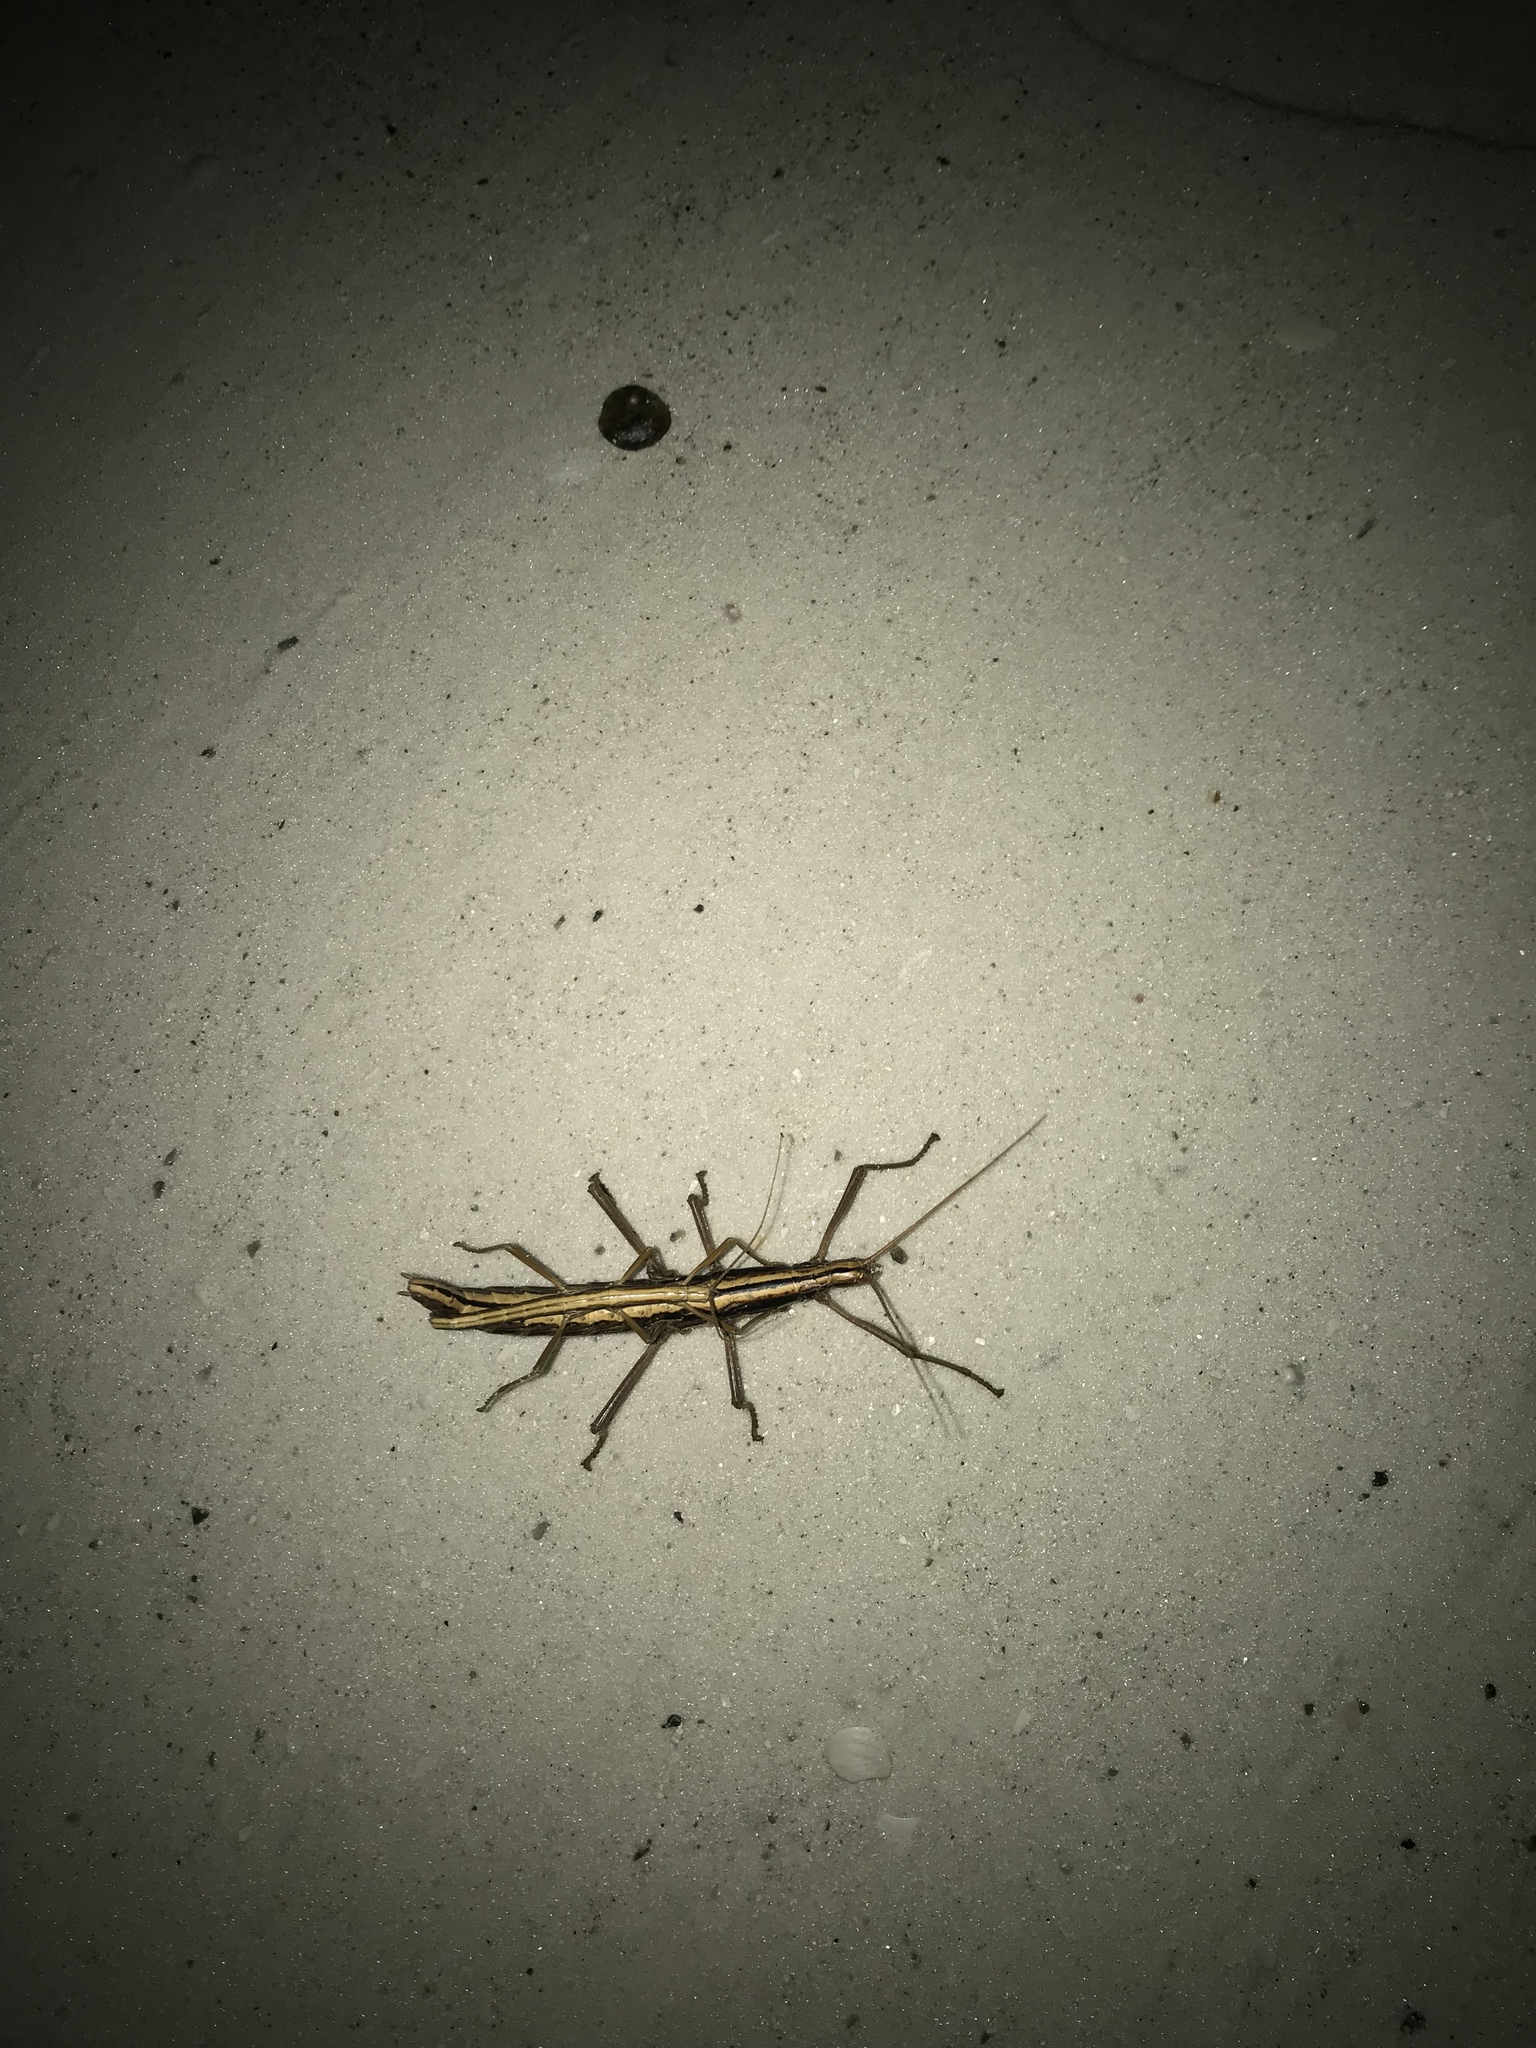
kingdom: Animalia
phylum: Arthropoda
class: Insecta
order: Phasmida
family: Pseudophasmatidae
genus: Anisomorpha
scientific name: Anisomorpha buprestoides
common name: Florida stick insect
